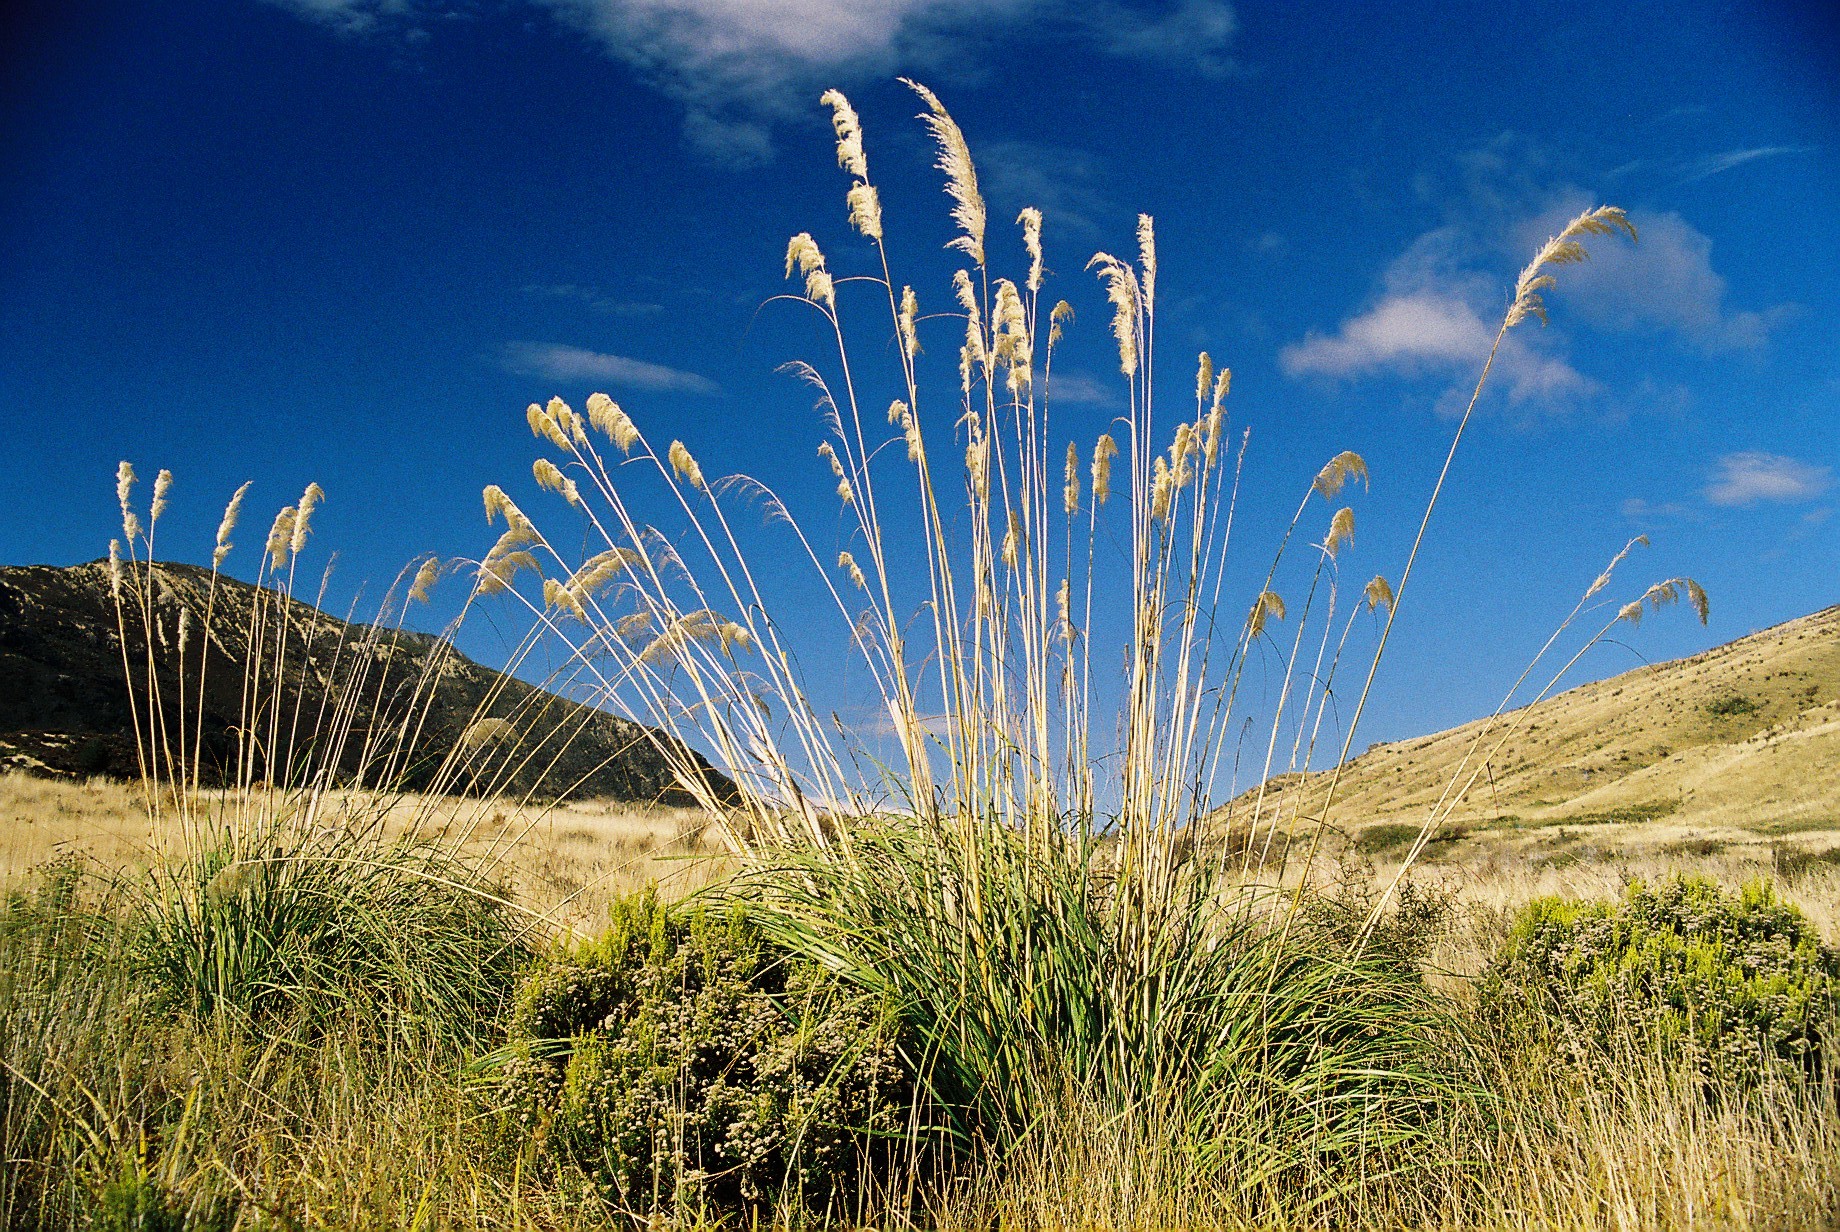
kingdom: Plantae
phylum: Tracheophyta
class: Liliopsida
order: Poales
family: Poaceae
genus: Austroderia
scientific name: Austroderia richardii
